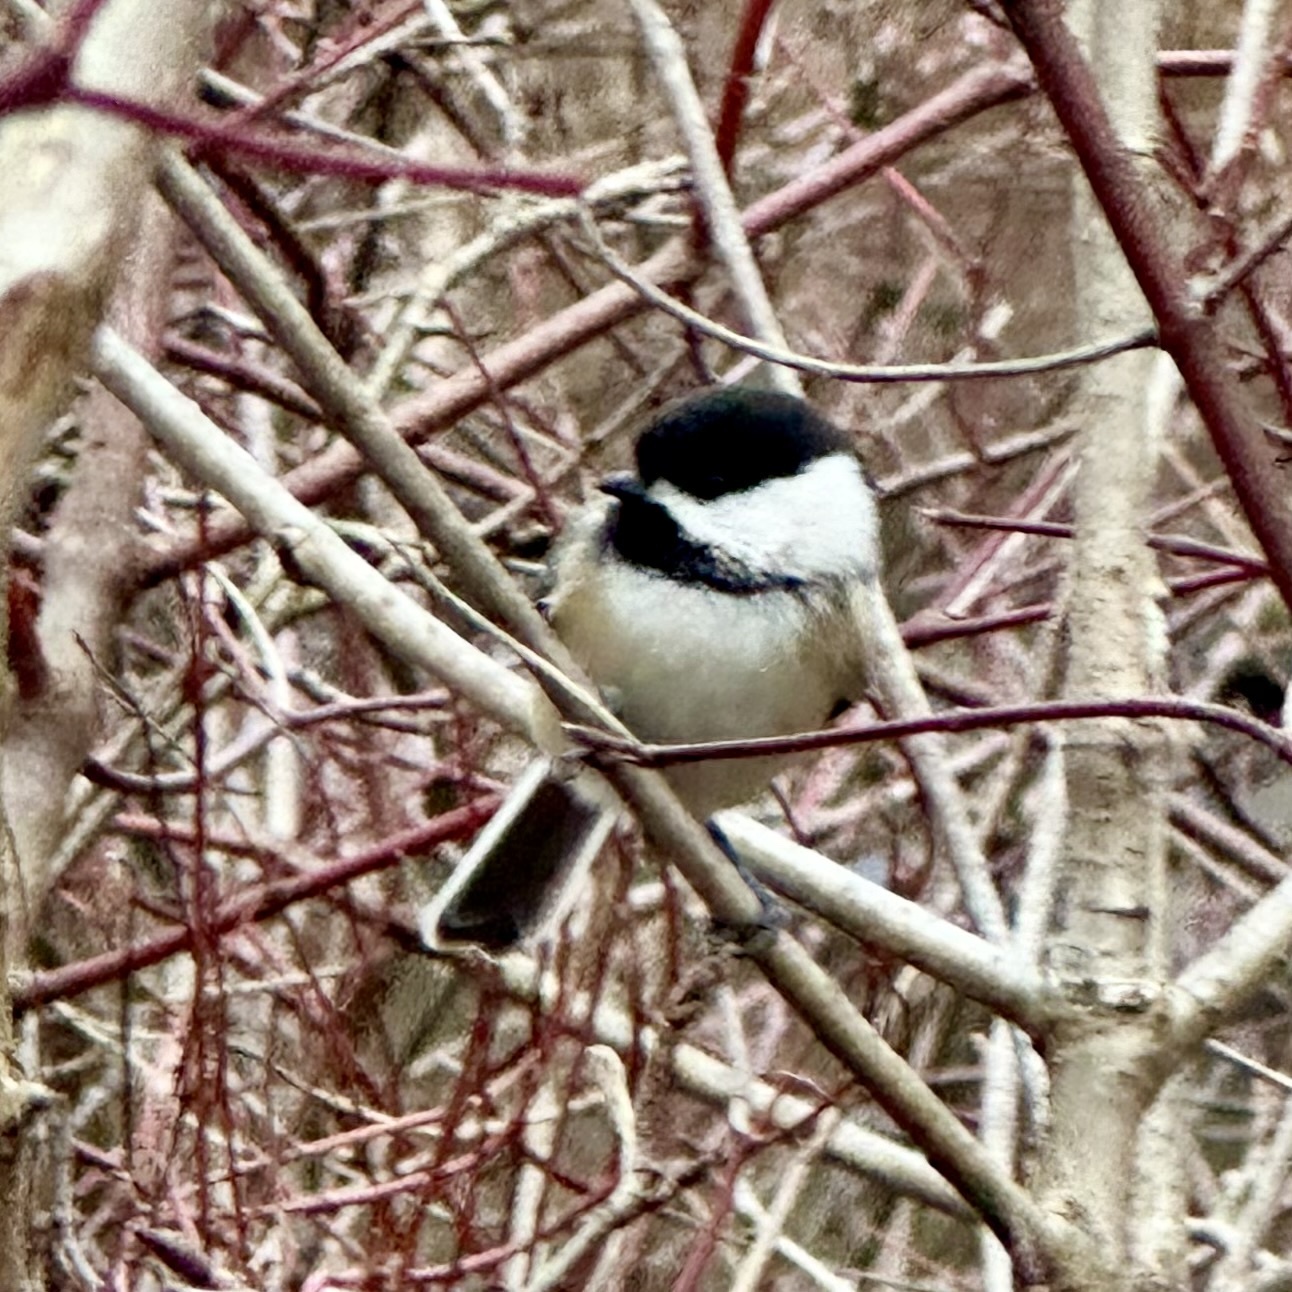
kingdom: Animalia
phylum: Chordata
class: Aves
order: Passeriformes
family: Paridae
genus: Poecile
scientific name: Poecile atricapillus
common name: Black-capped chickadee
